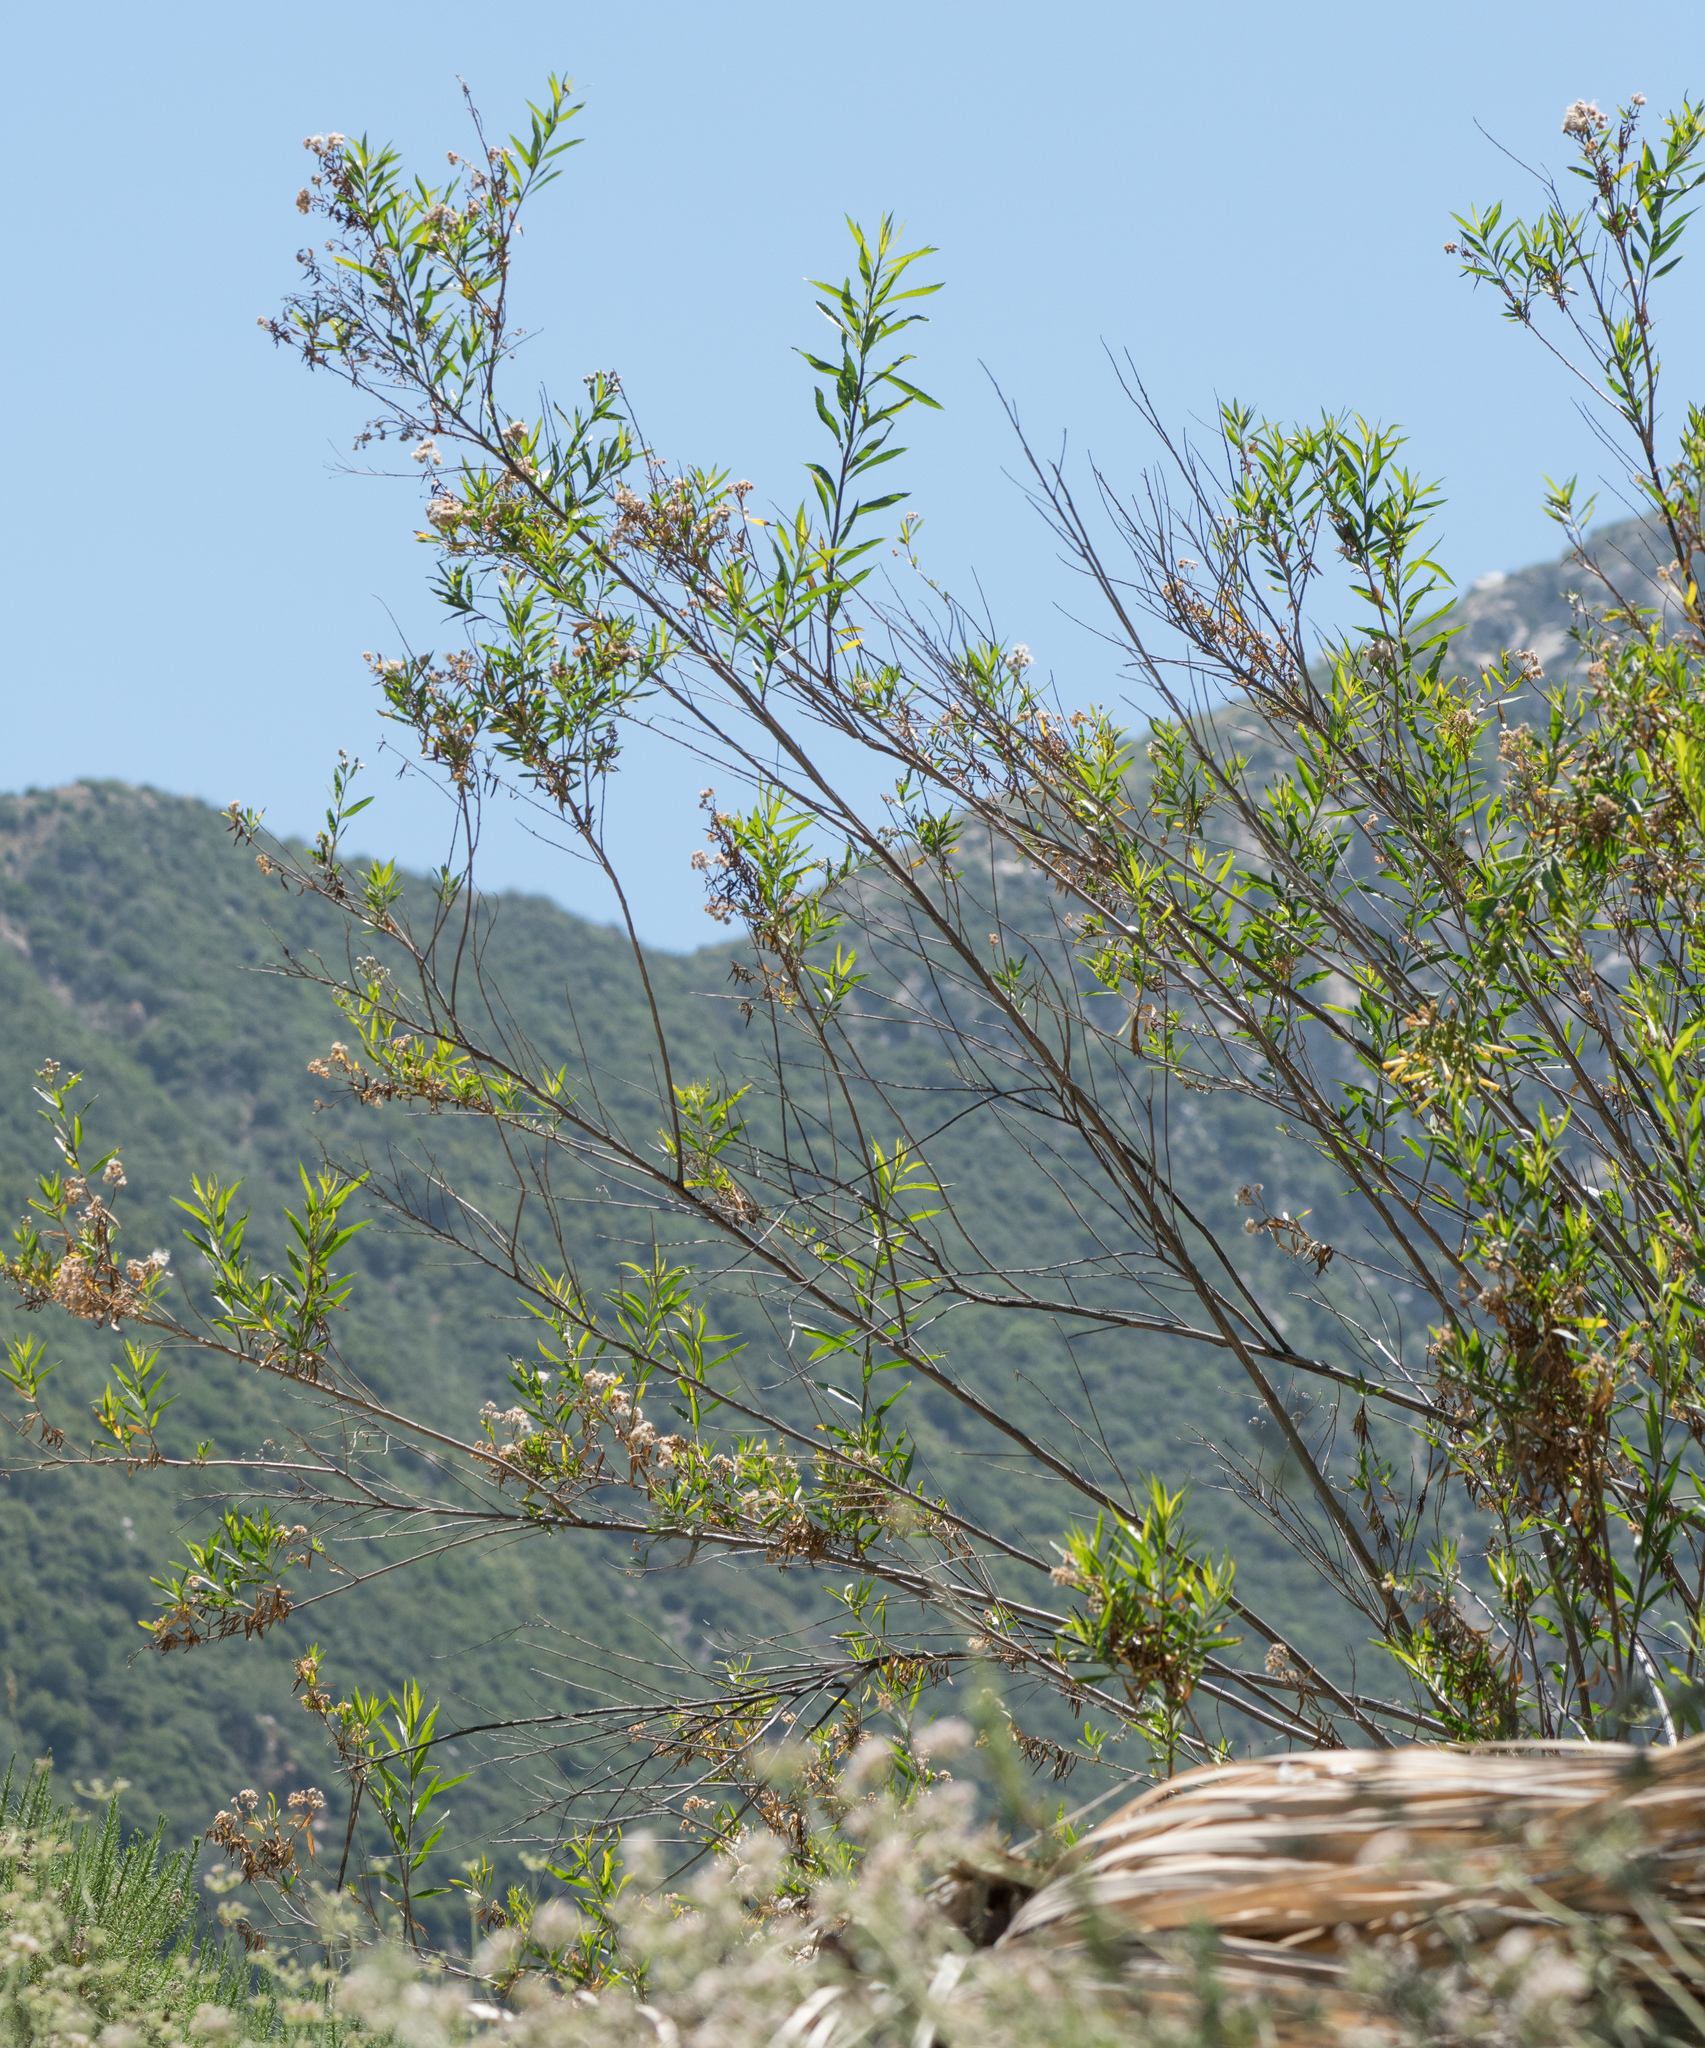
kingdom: Plantae
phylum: Tracheophyta
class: Magnoliopsida
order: Asterales
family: Asteraceae
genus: Baccharis
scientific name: Baccharis salicifolia
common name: Sticky baccharis
